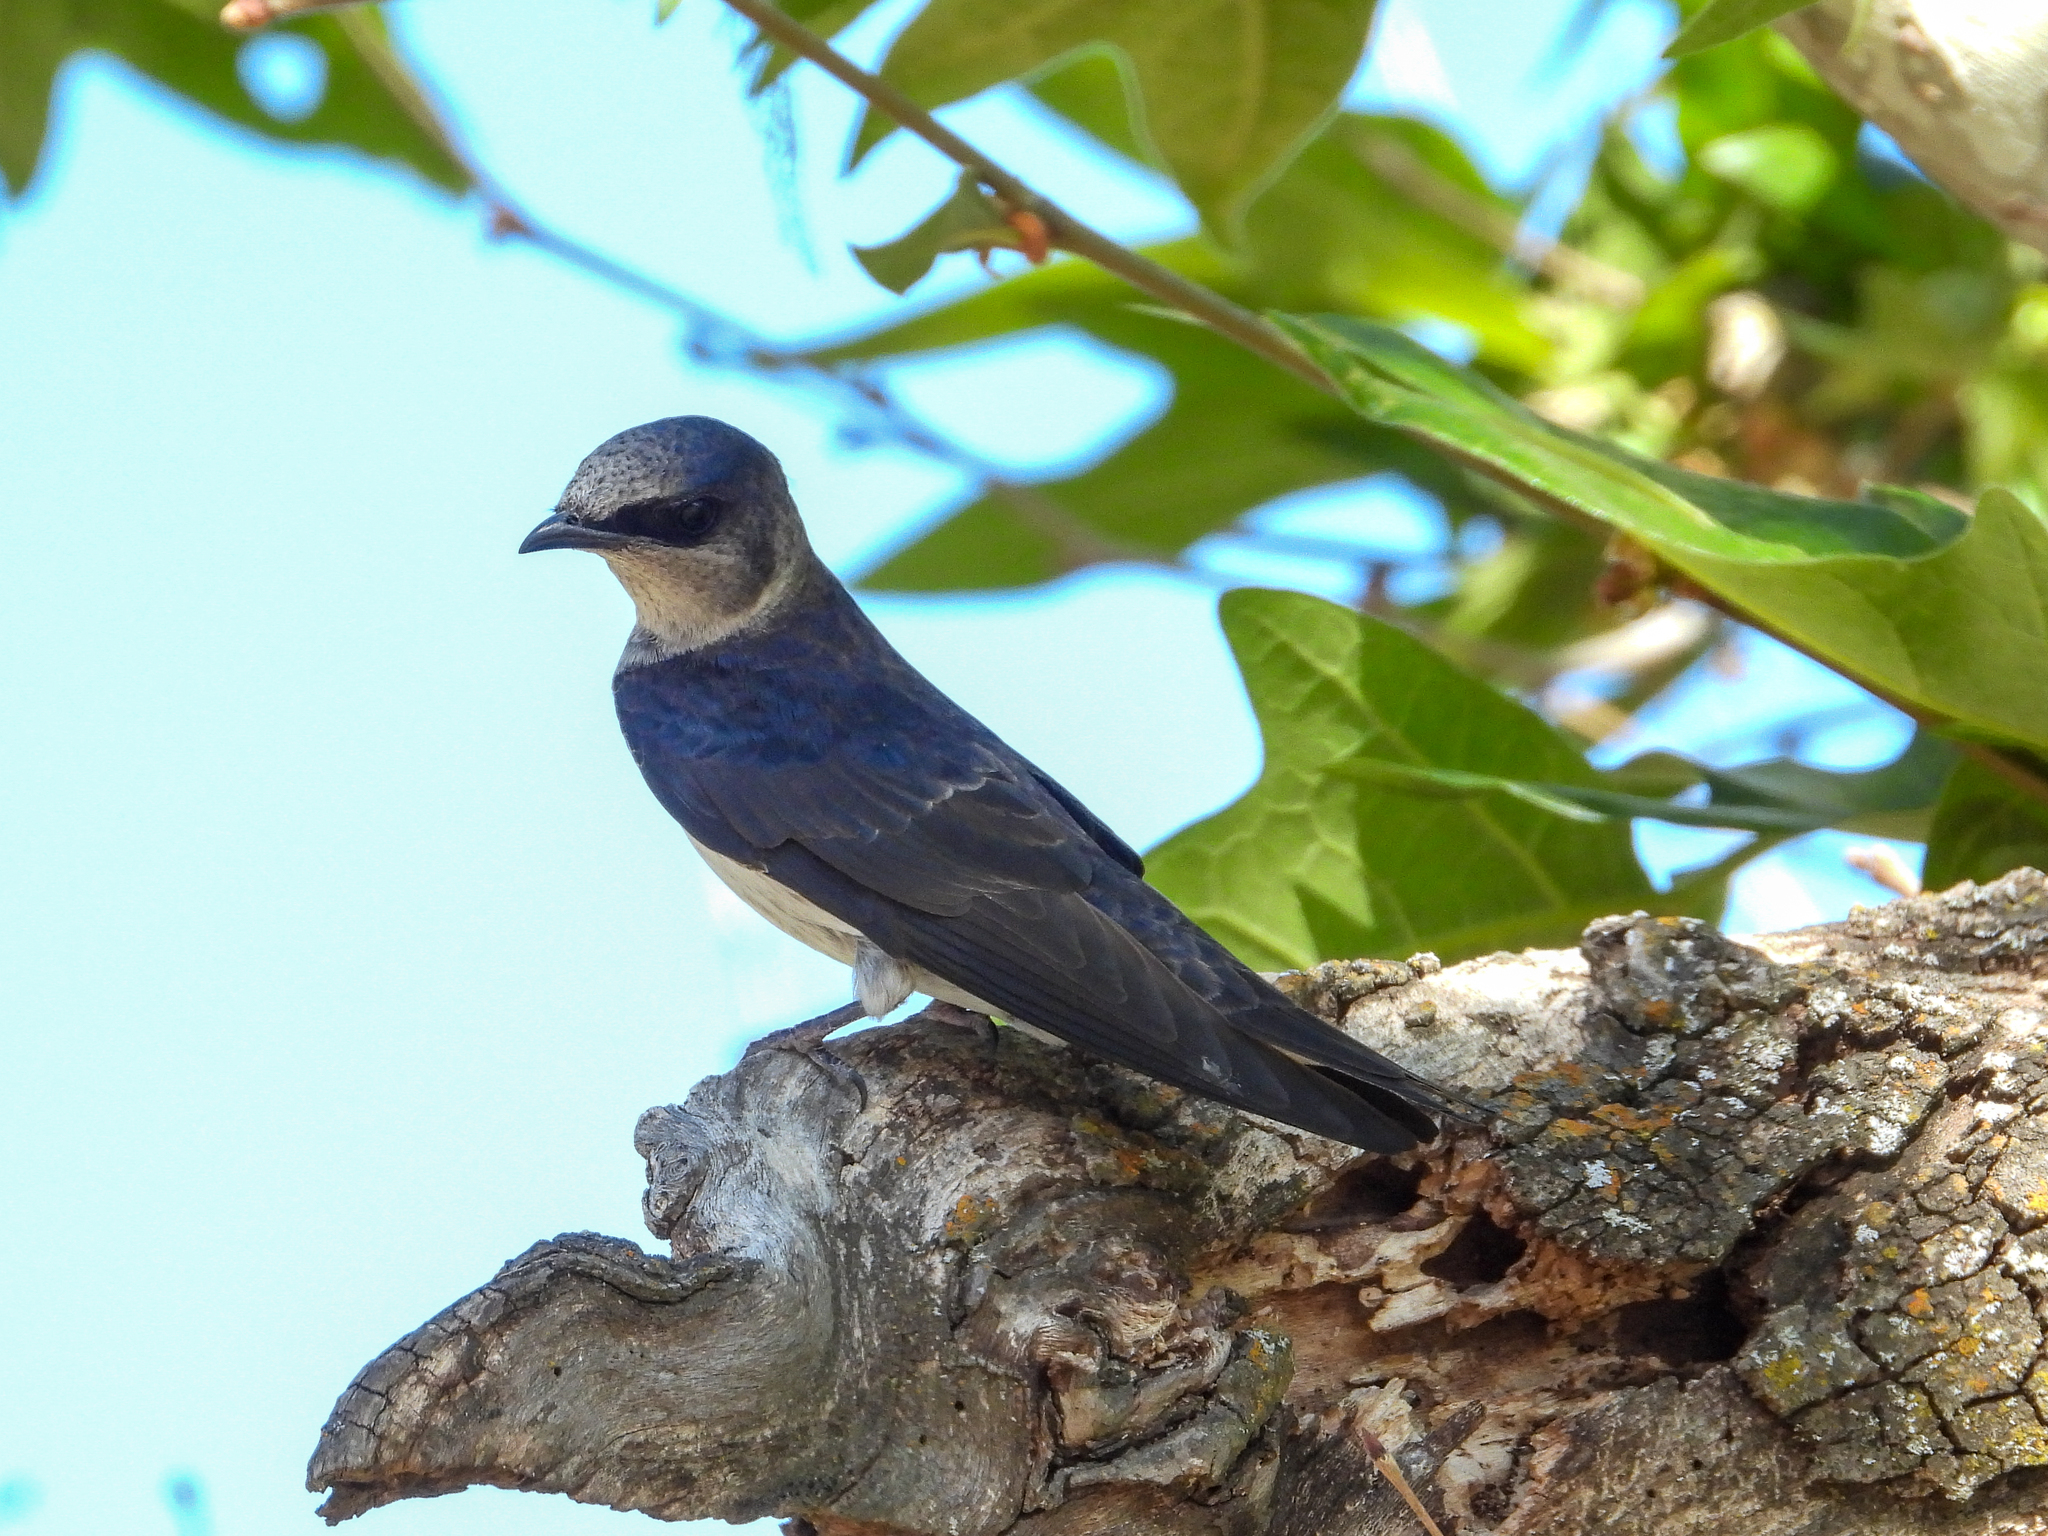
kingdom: Animalia
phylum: Chordata
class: Aves
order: Passeriformes
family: Hirundinidae
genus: Progne
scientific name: Progne subis
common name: Purple martin
